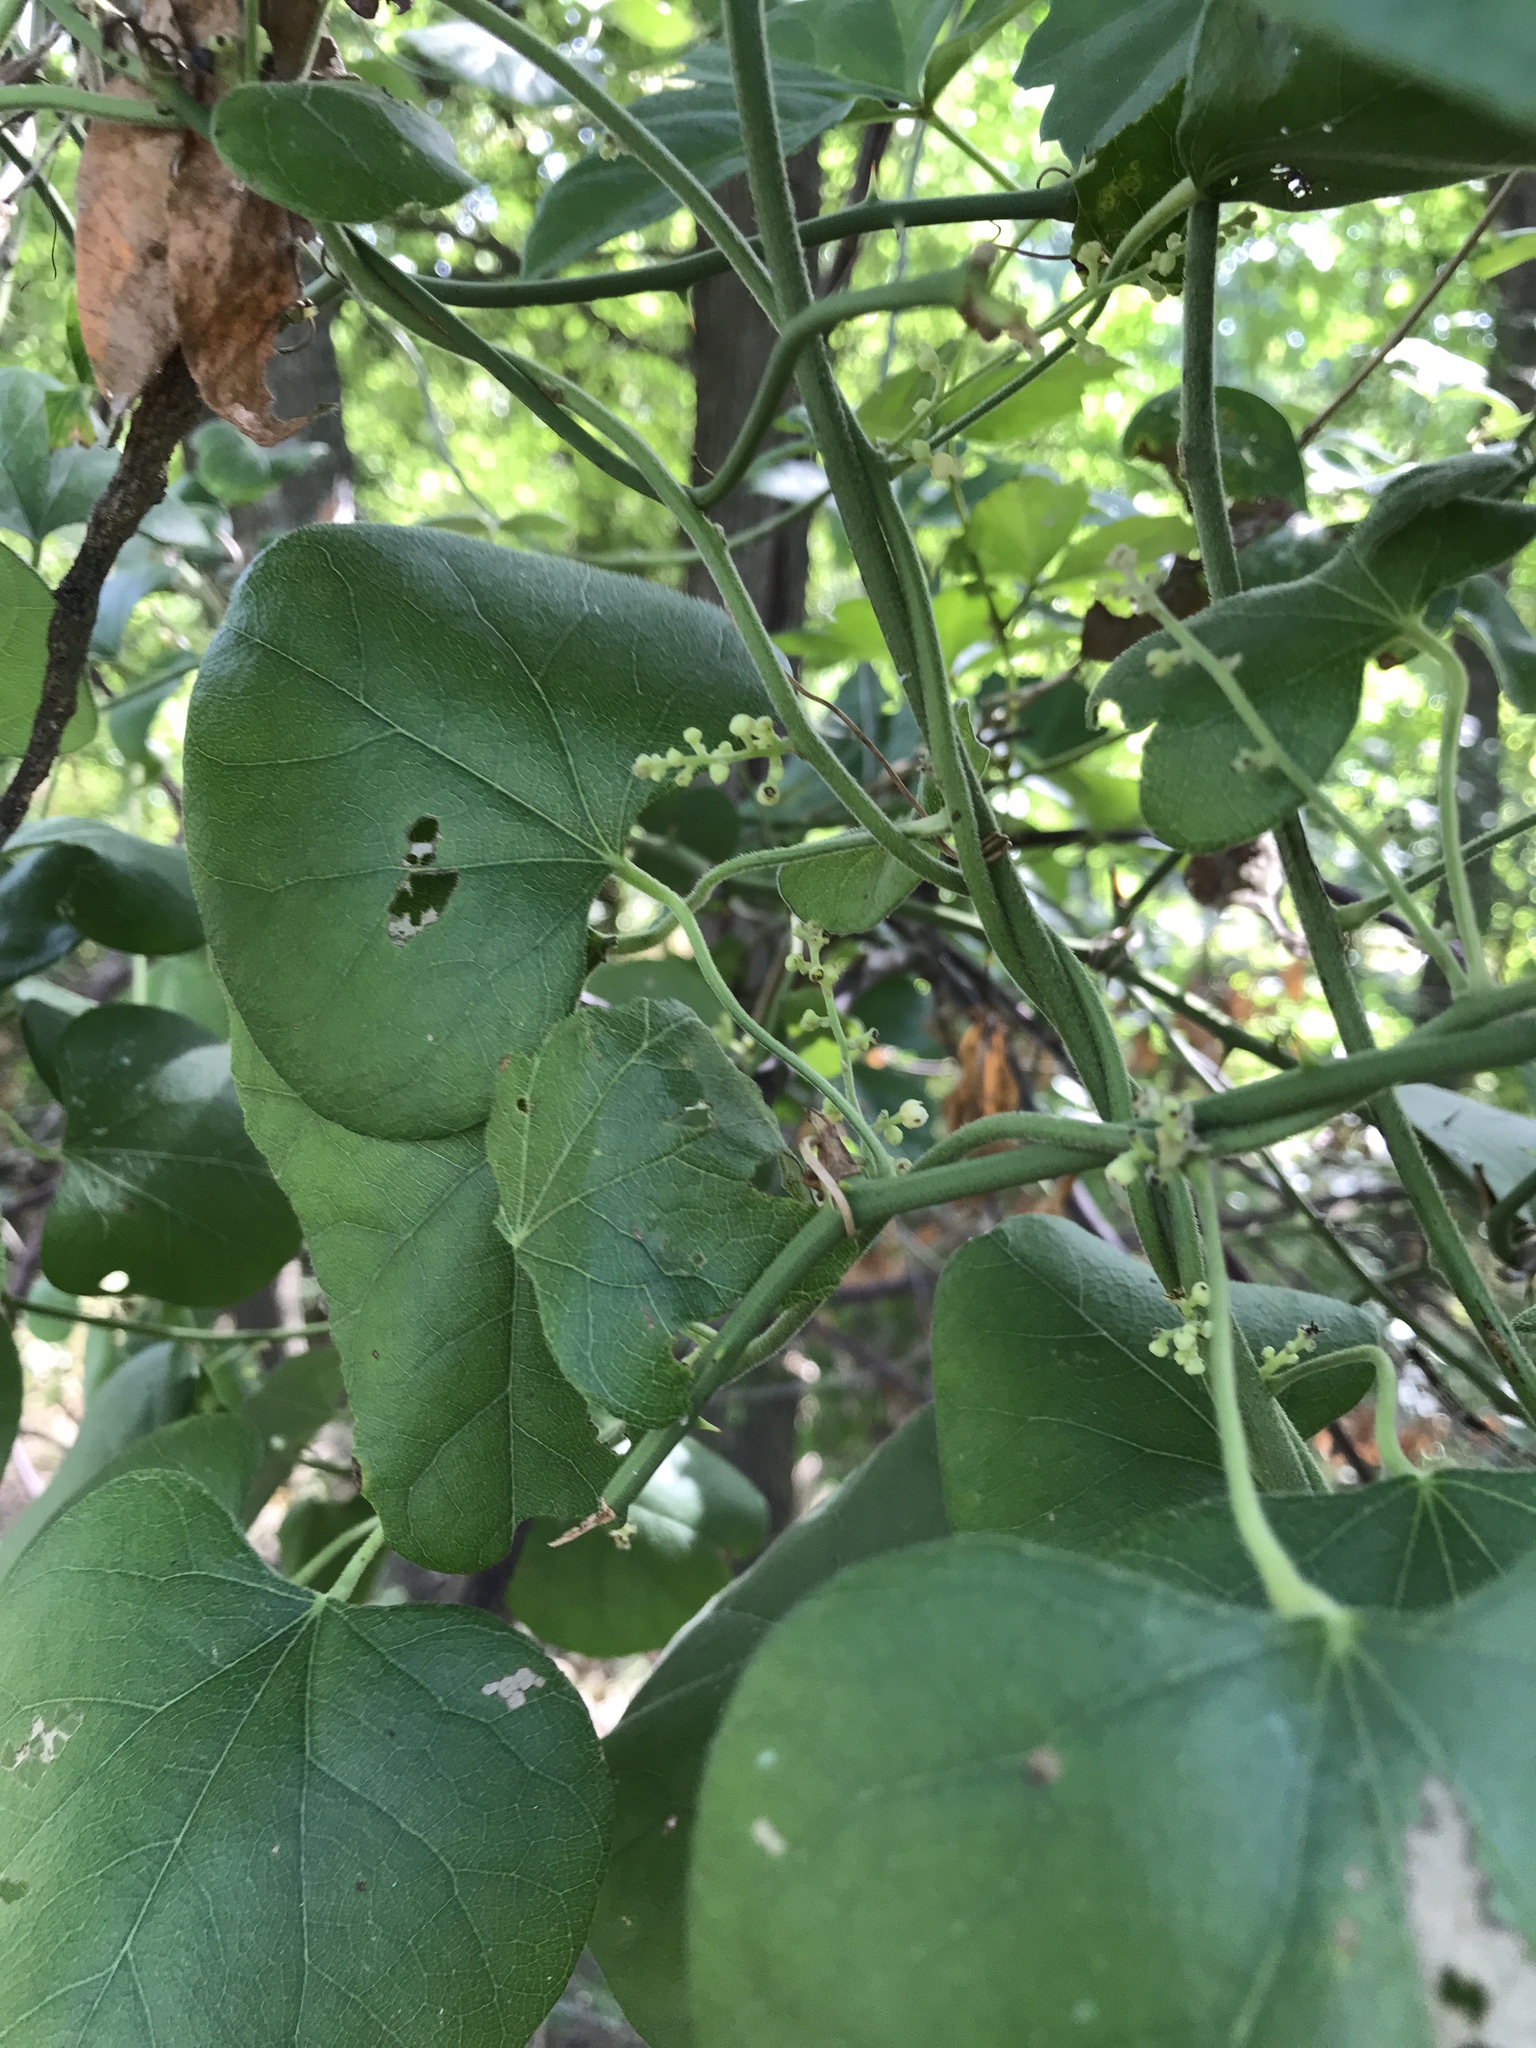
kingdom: Plantae
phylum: Tracheophyta
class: Magnoliopsida
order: Ranunculales
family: Menispermaceae
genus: Cocculus
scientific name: Cocculus carolinus
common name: Carolina moonseed
